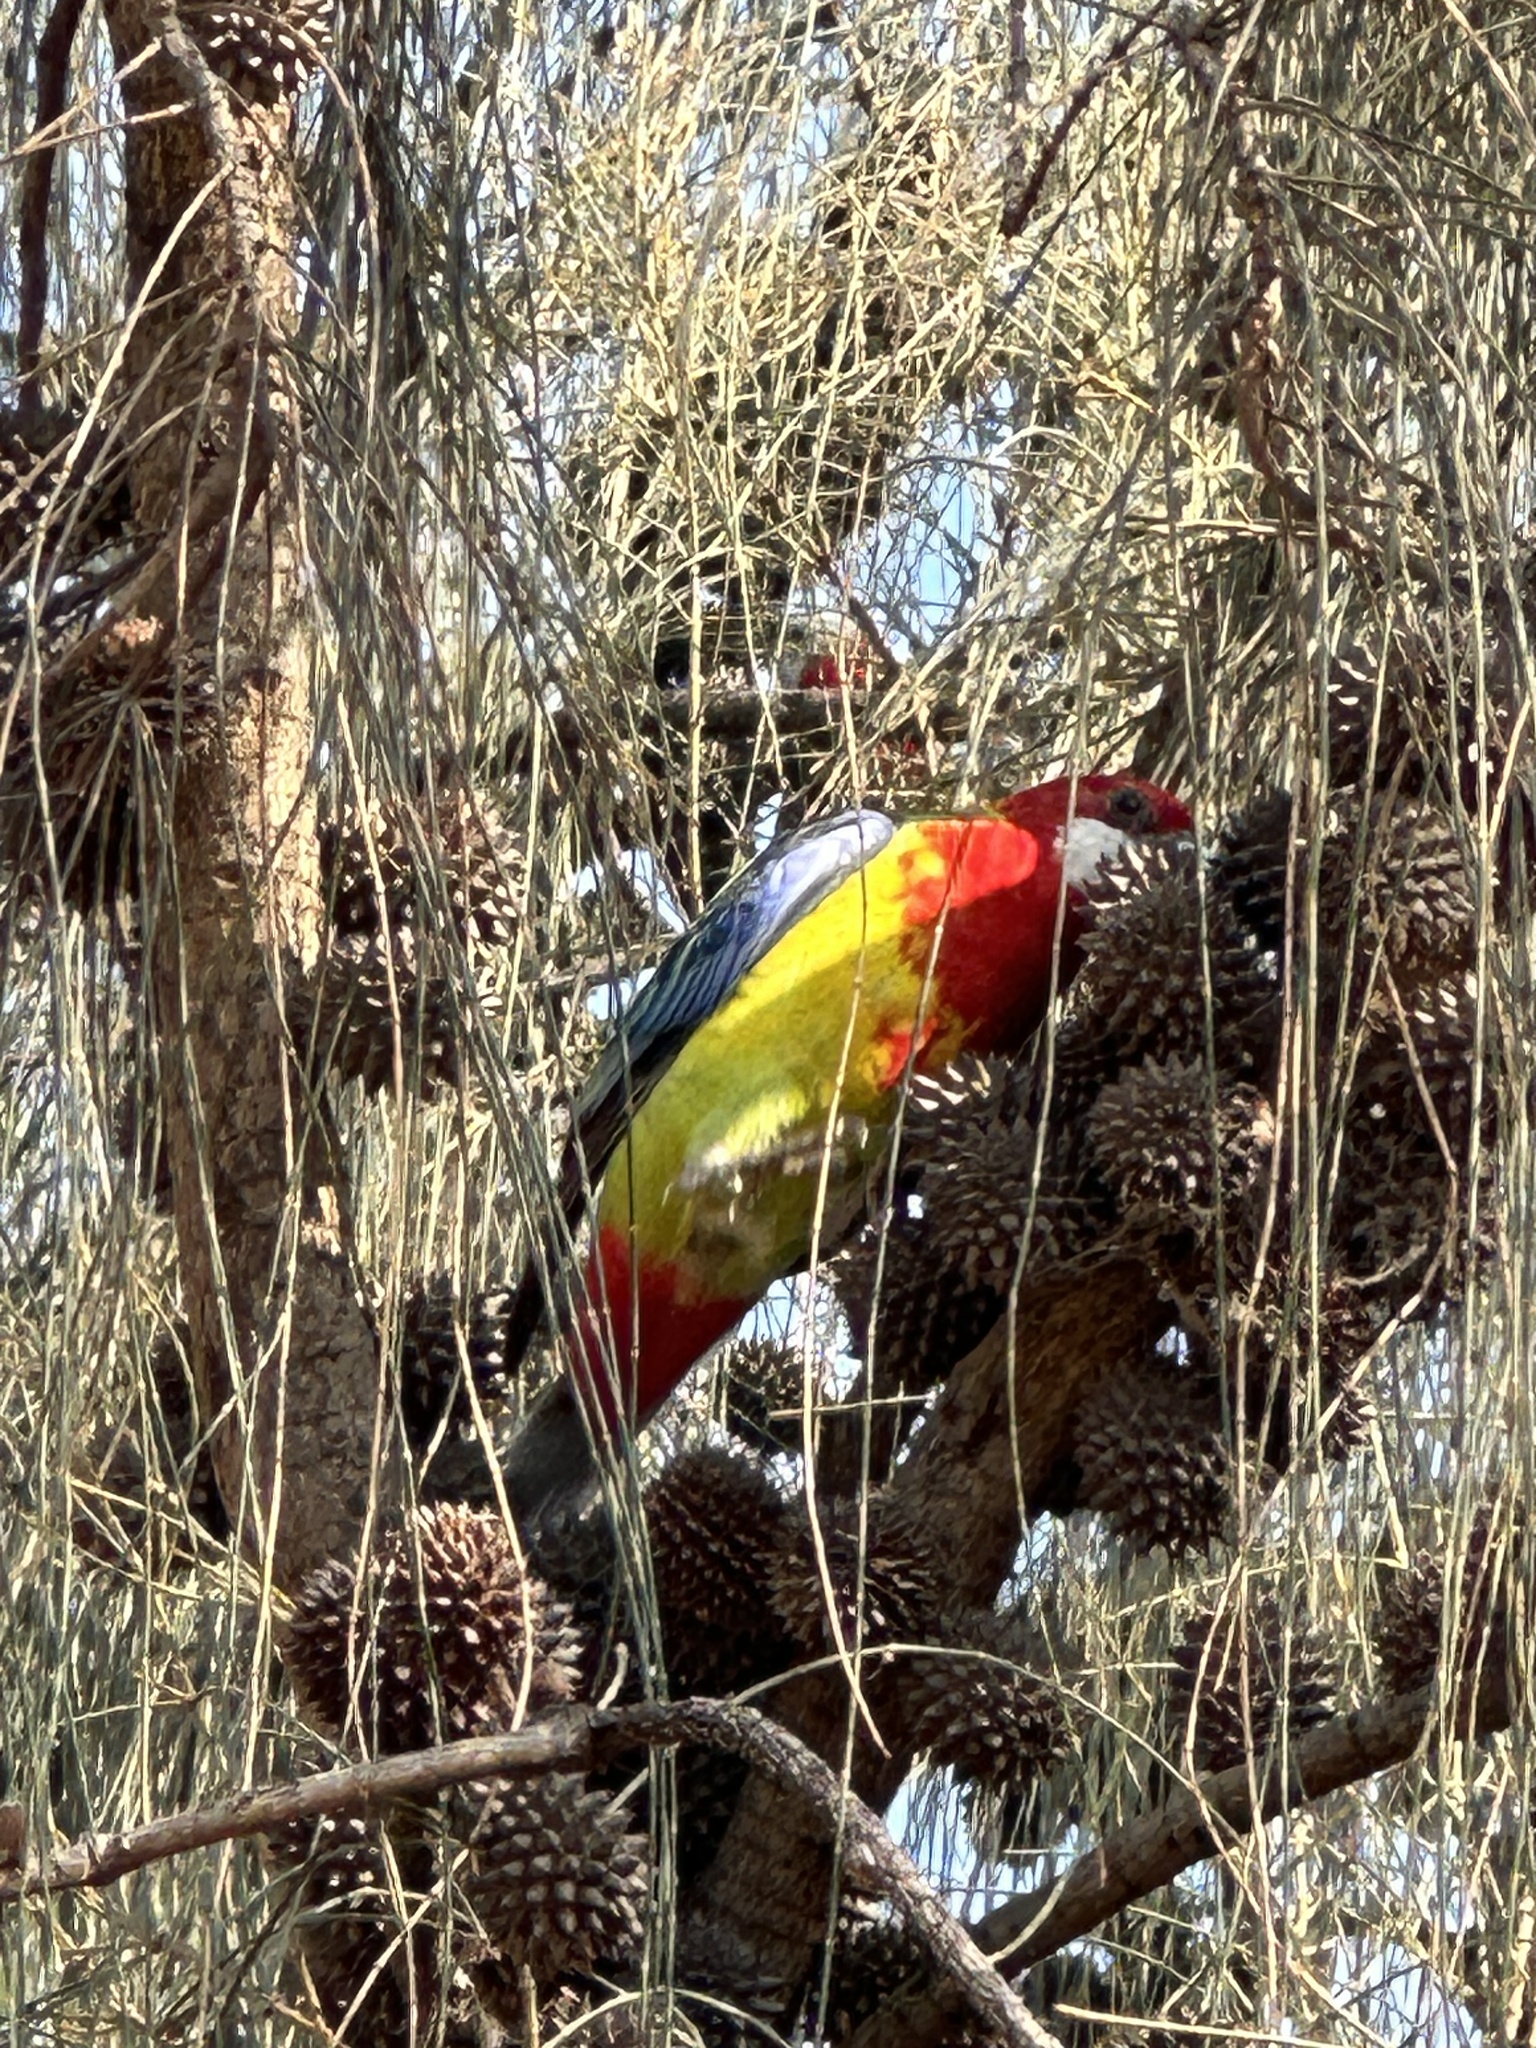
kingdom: Animalia
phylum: Chordata
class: Aves
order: Psittaciformes
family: Psittacidae
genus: Platycercus
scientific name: Platycercus eximius
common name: Eastern rosella
